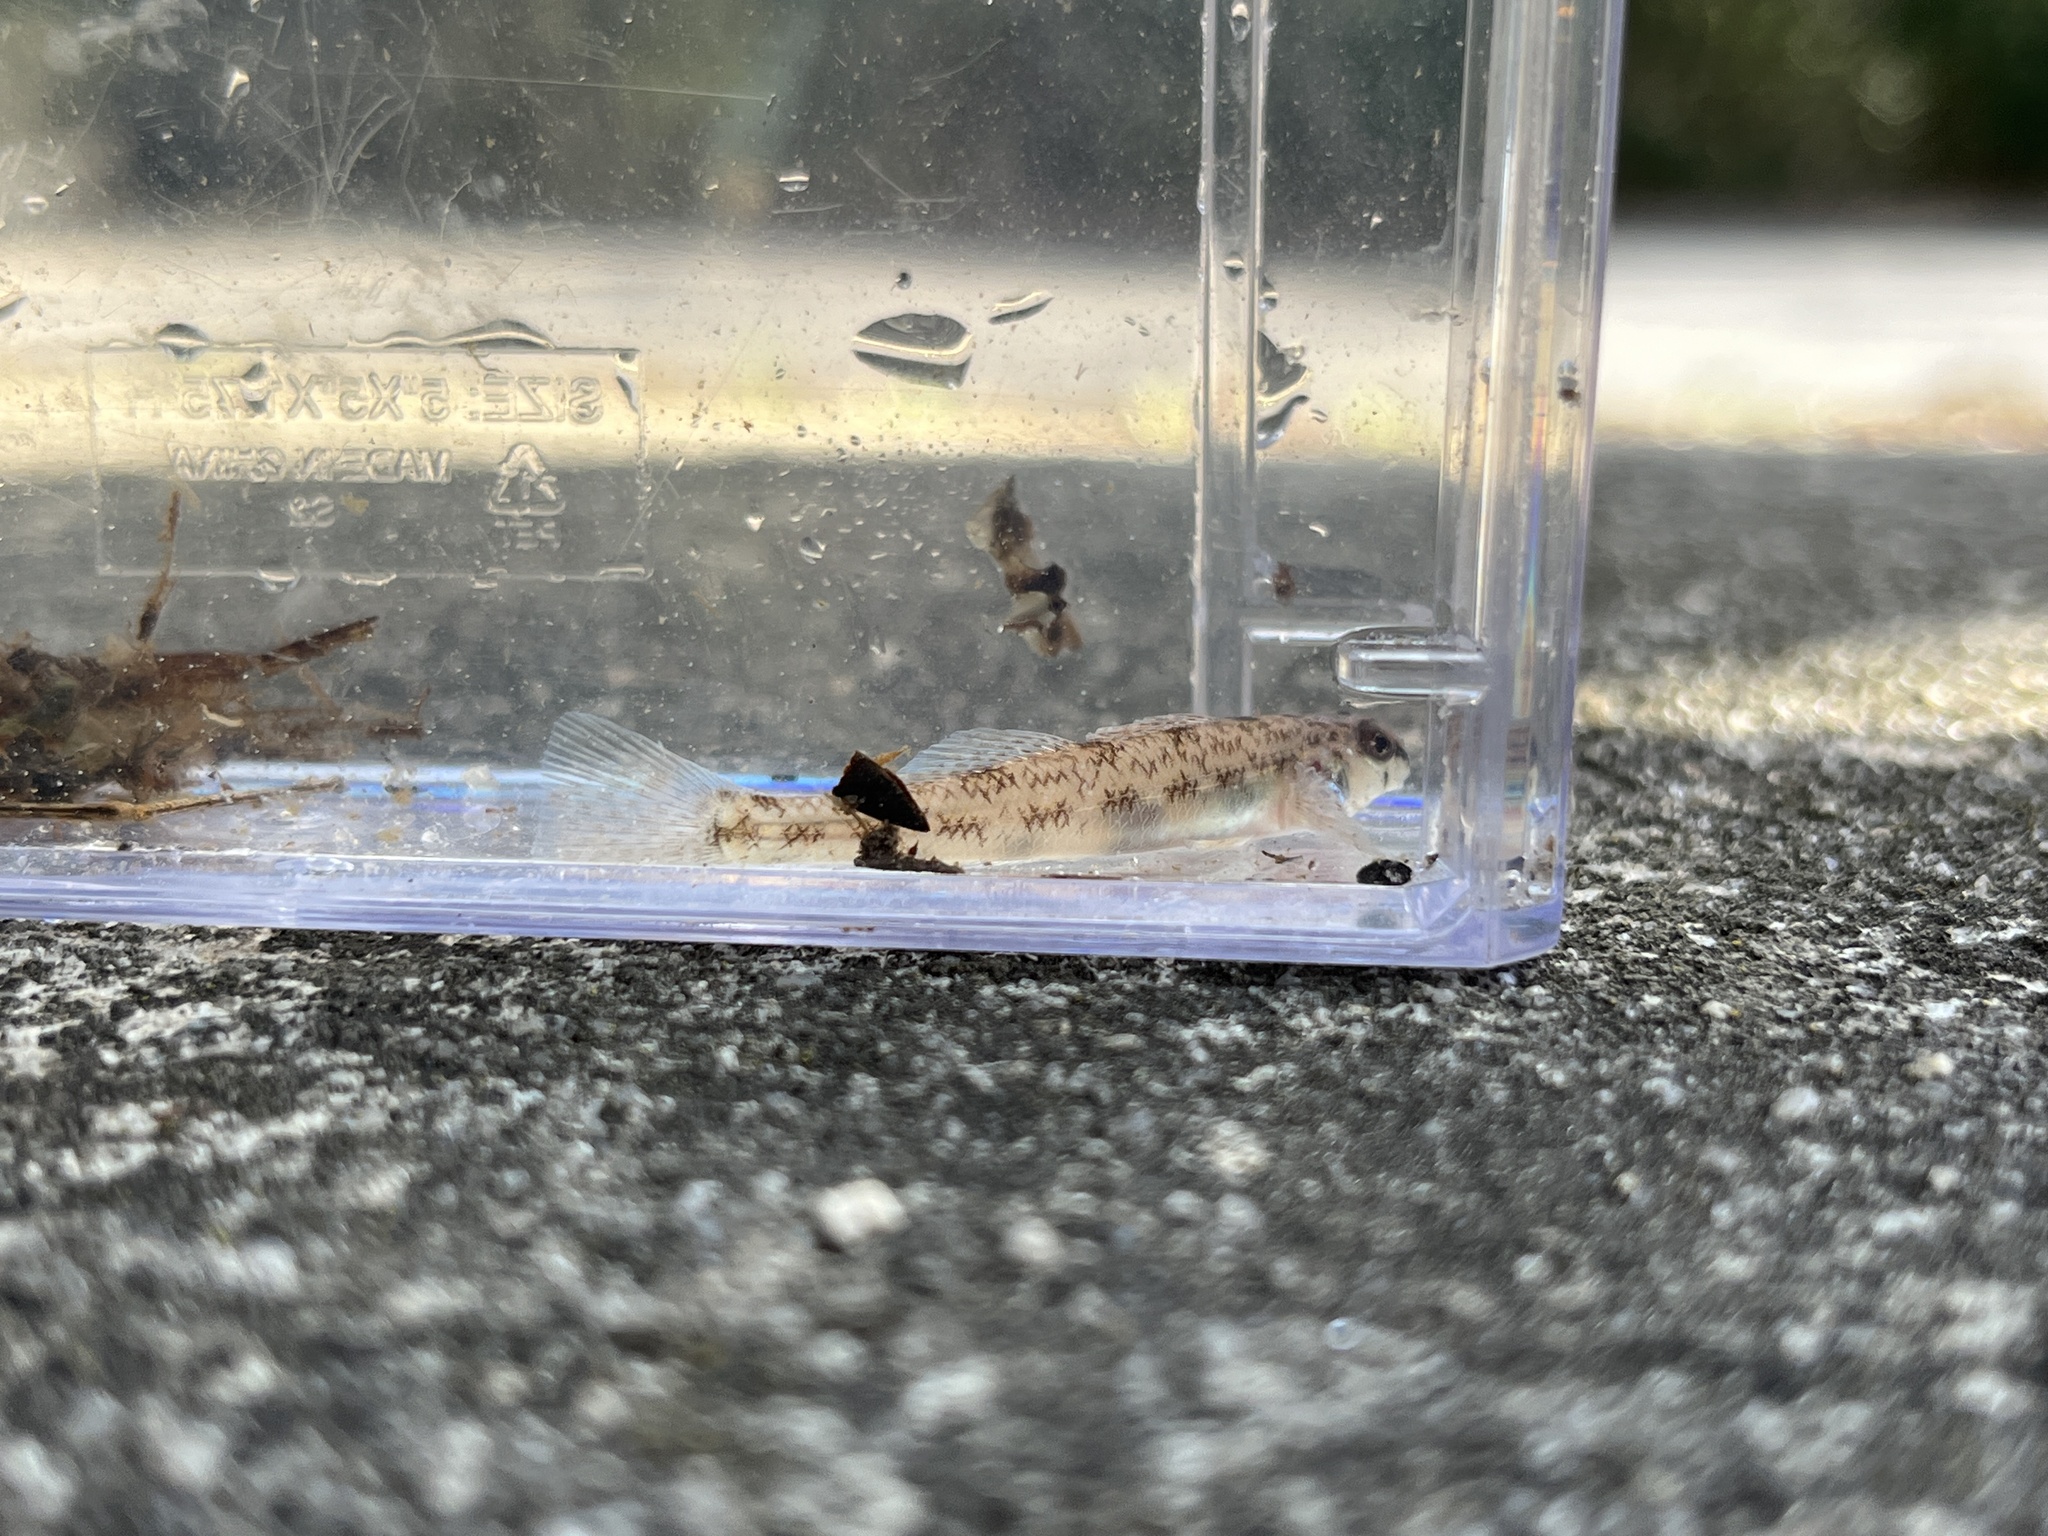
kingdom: Animalia
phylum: Chordata
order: Perciformes
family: Percidae
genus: Etheostoma
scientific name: Etheostoma
